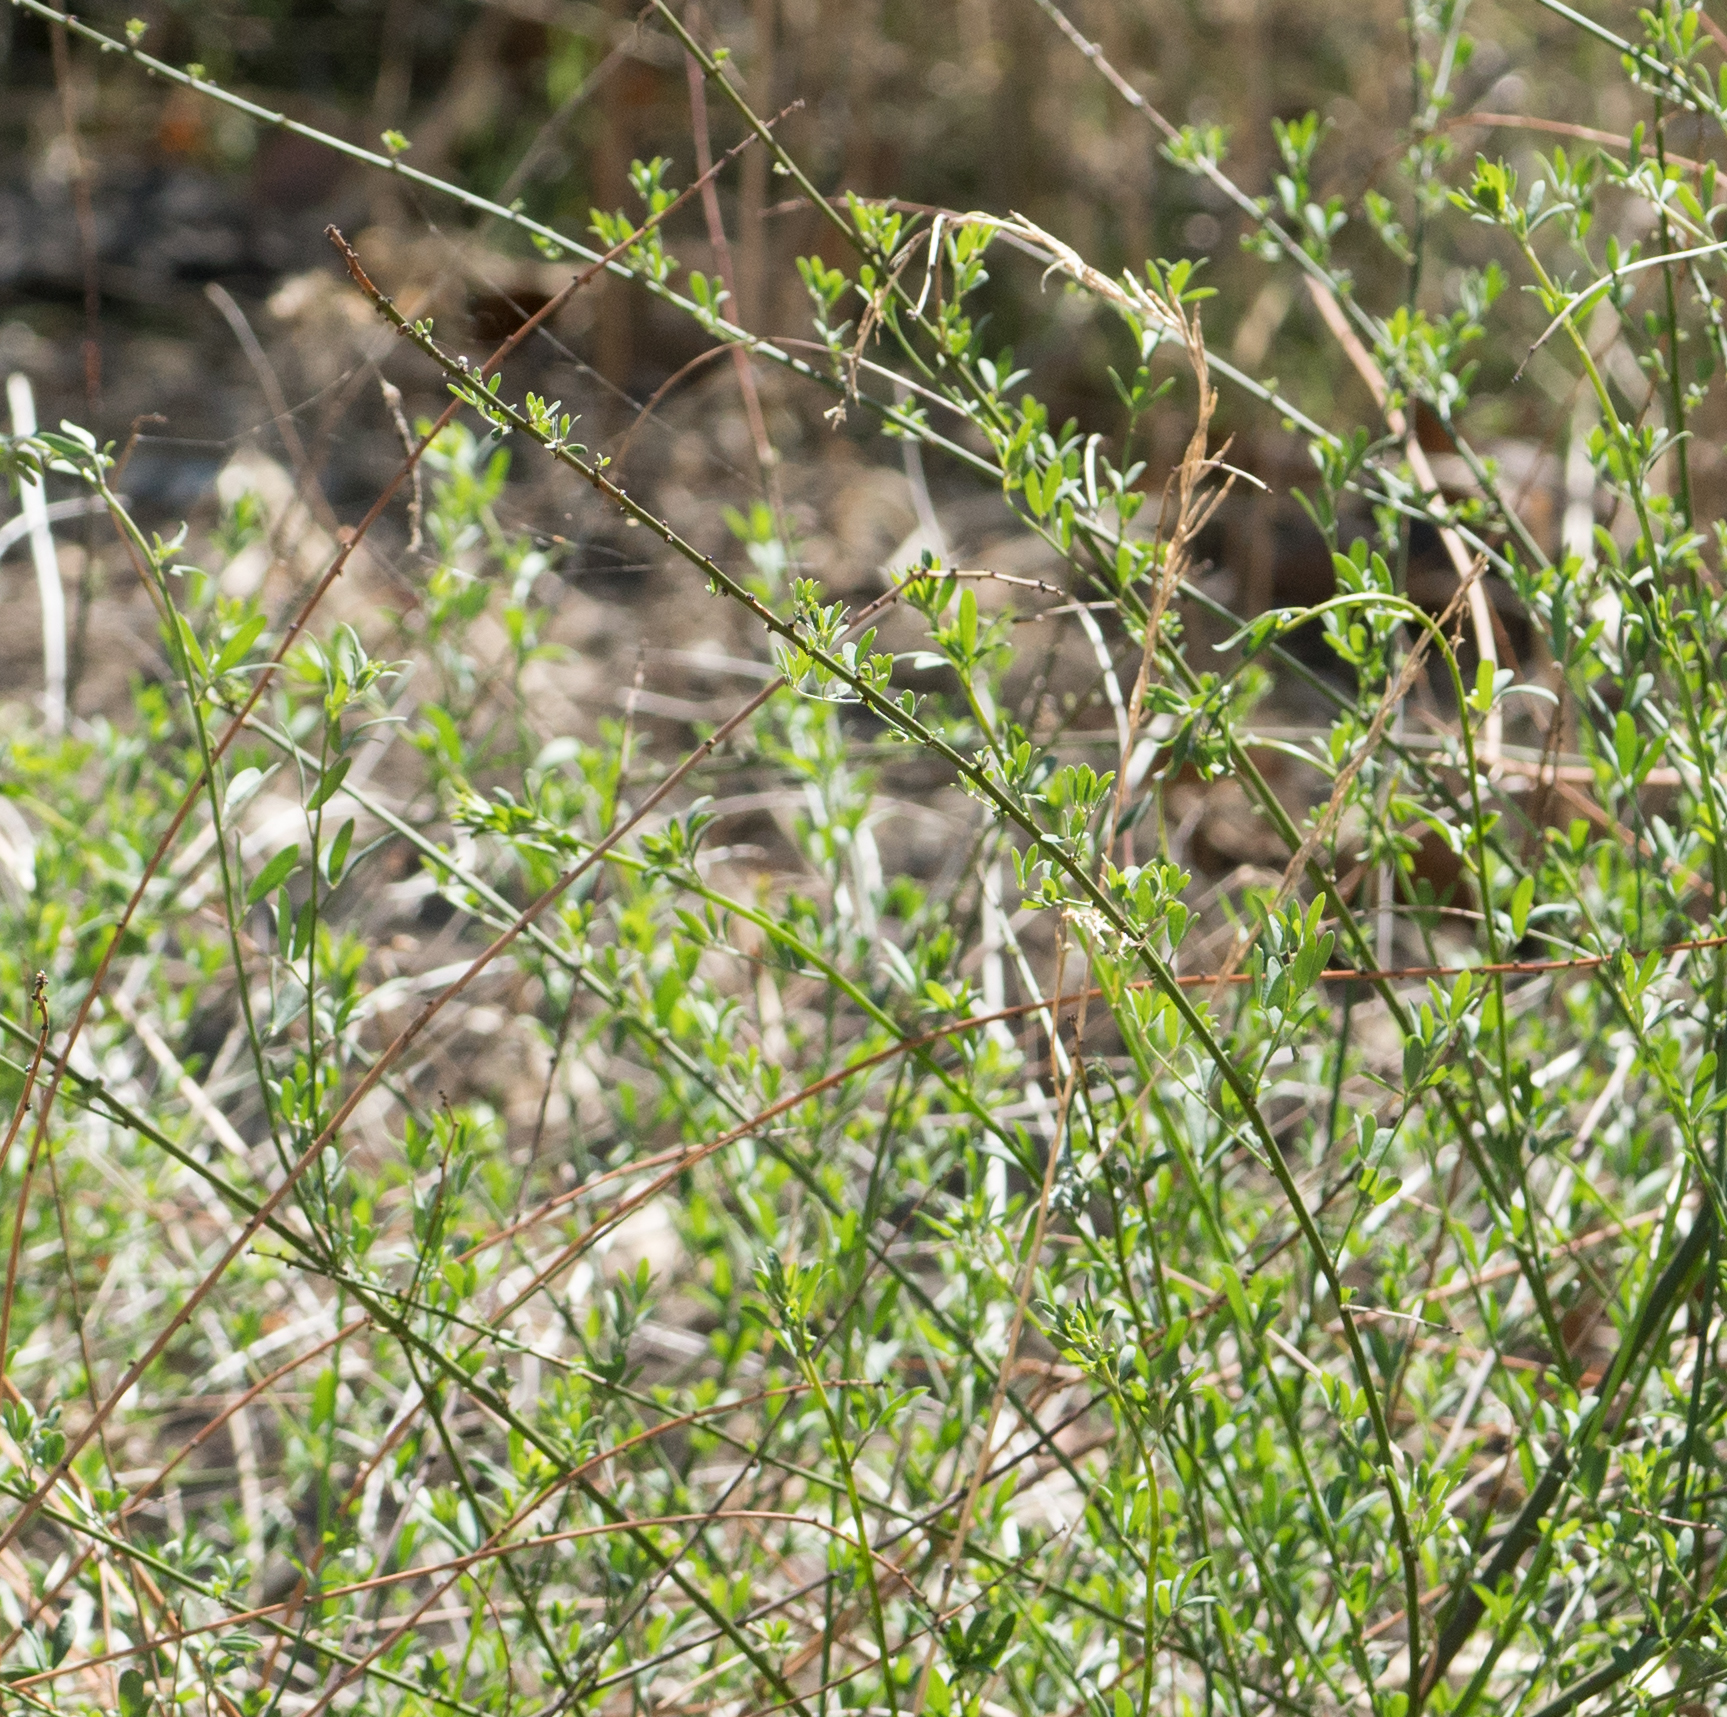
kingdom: Plantae
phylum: Tracheophyta
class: Magnoliopsida
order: Fabales
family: Fabaceae
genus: Acmispon
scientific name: Acmispon glaber
